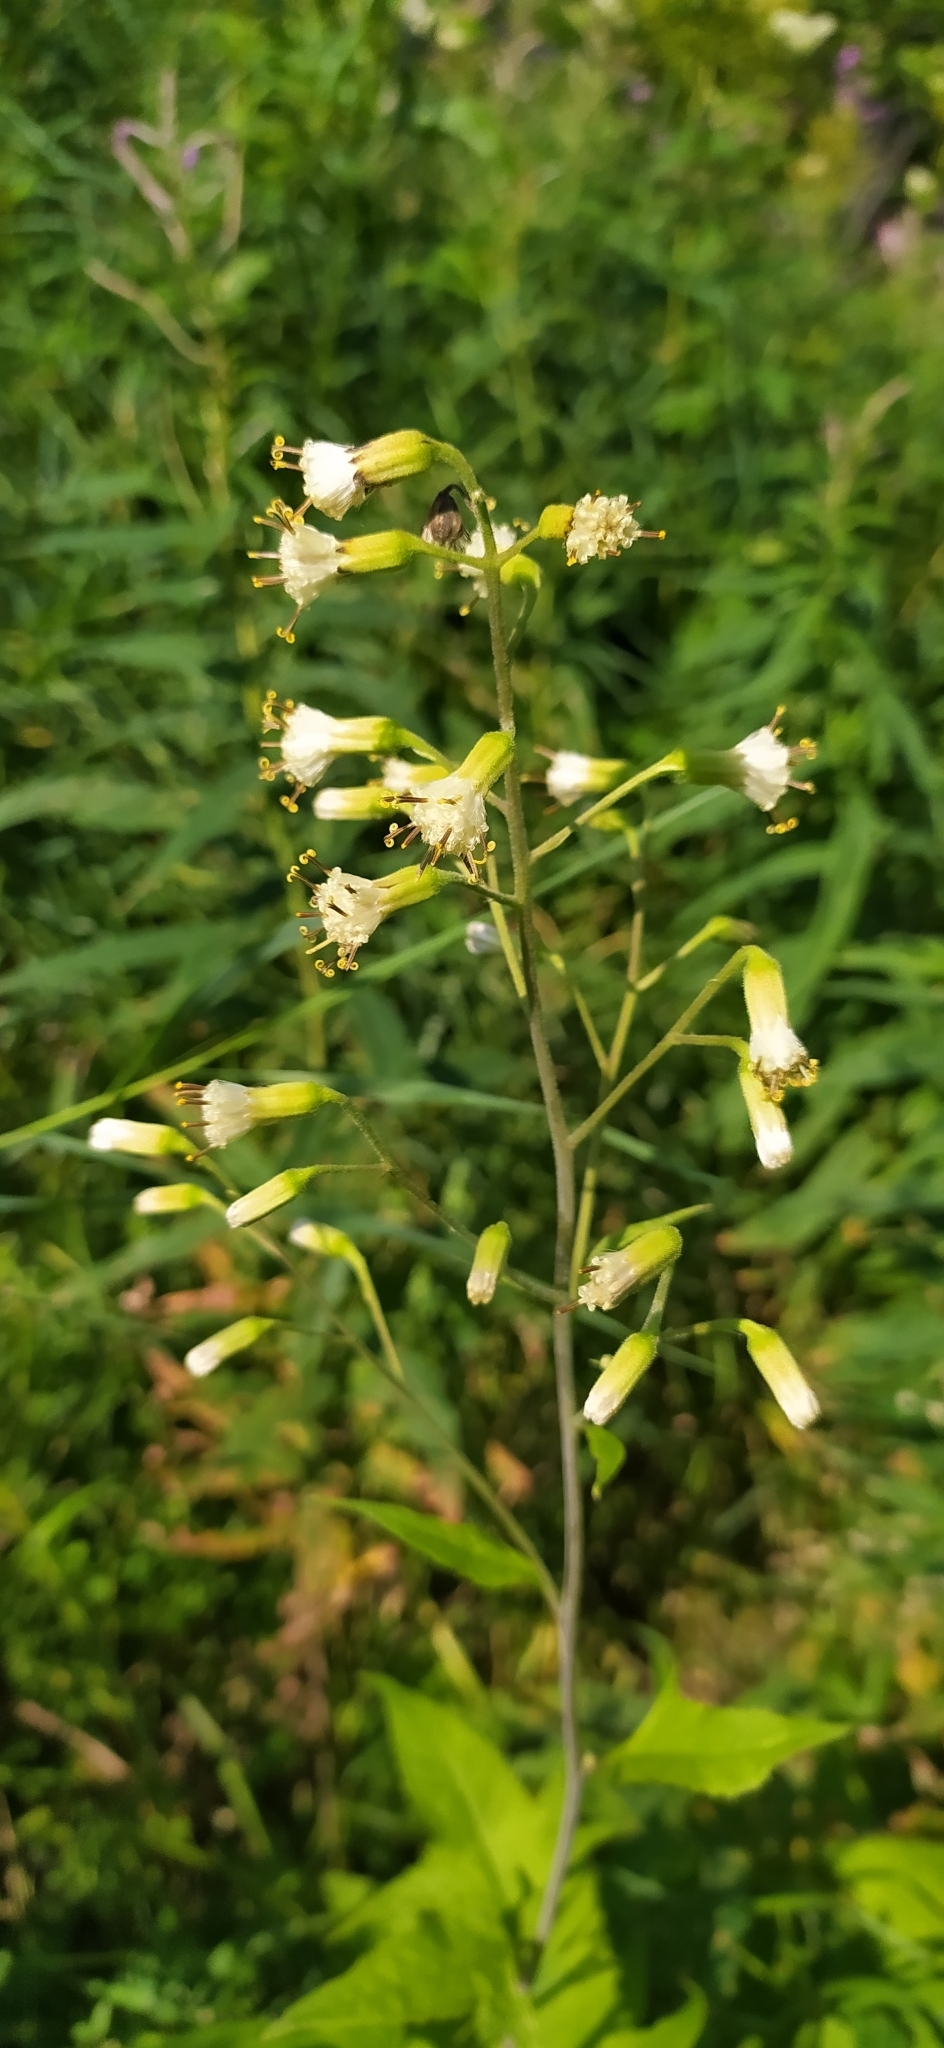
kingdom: Plantae
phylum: Tracheophyta
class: Magnoliopsida
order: Asterales
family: Asteraceae
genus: Parasenecio
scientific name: Parasenecio hastatus
